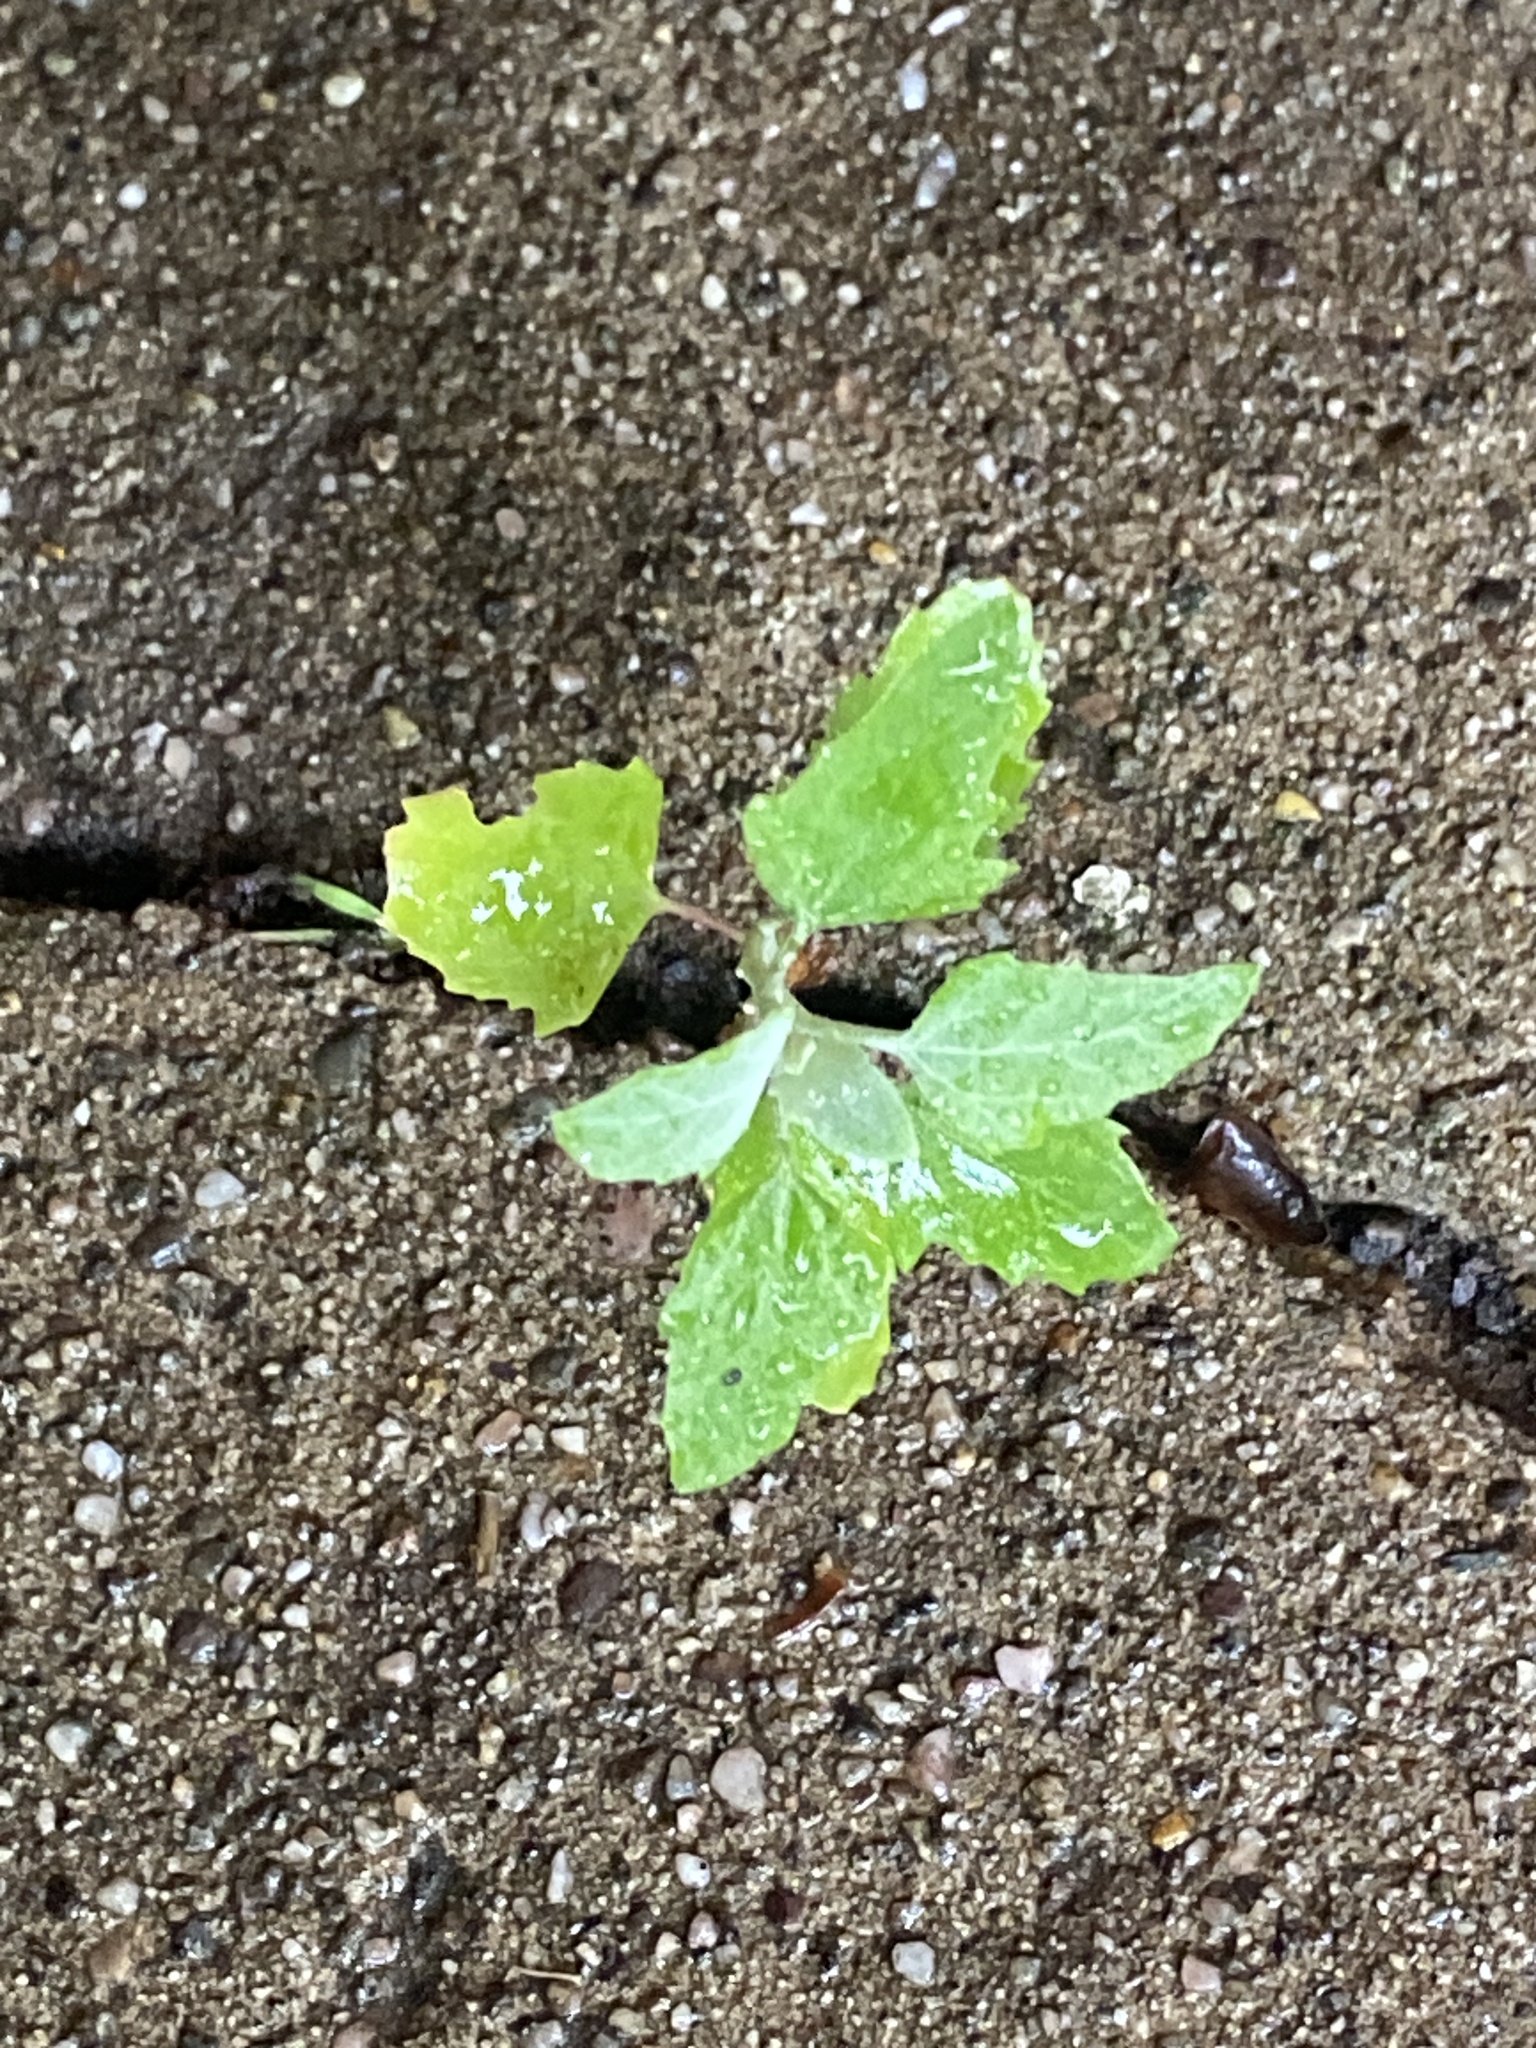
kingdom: Plantae
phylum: Tracheophyta
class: Magnoliopsida
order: Caryophyllales
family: Amaranthaceae
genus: Chenopodium
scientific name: Chenopodium album
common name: Fat-hen
